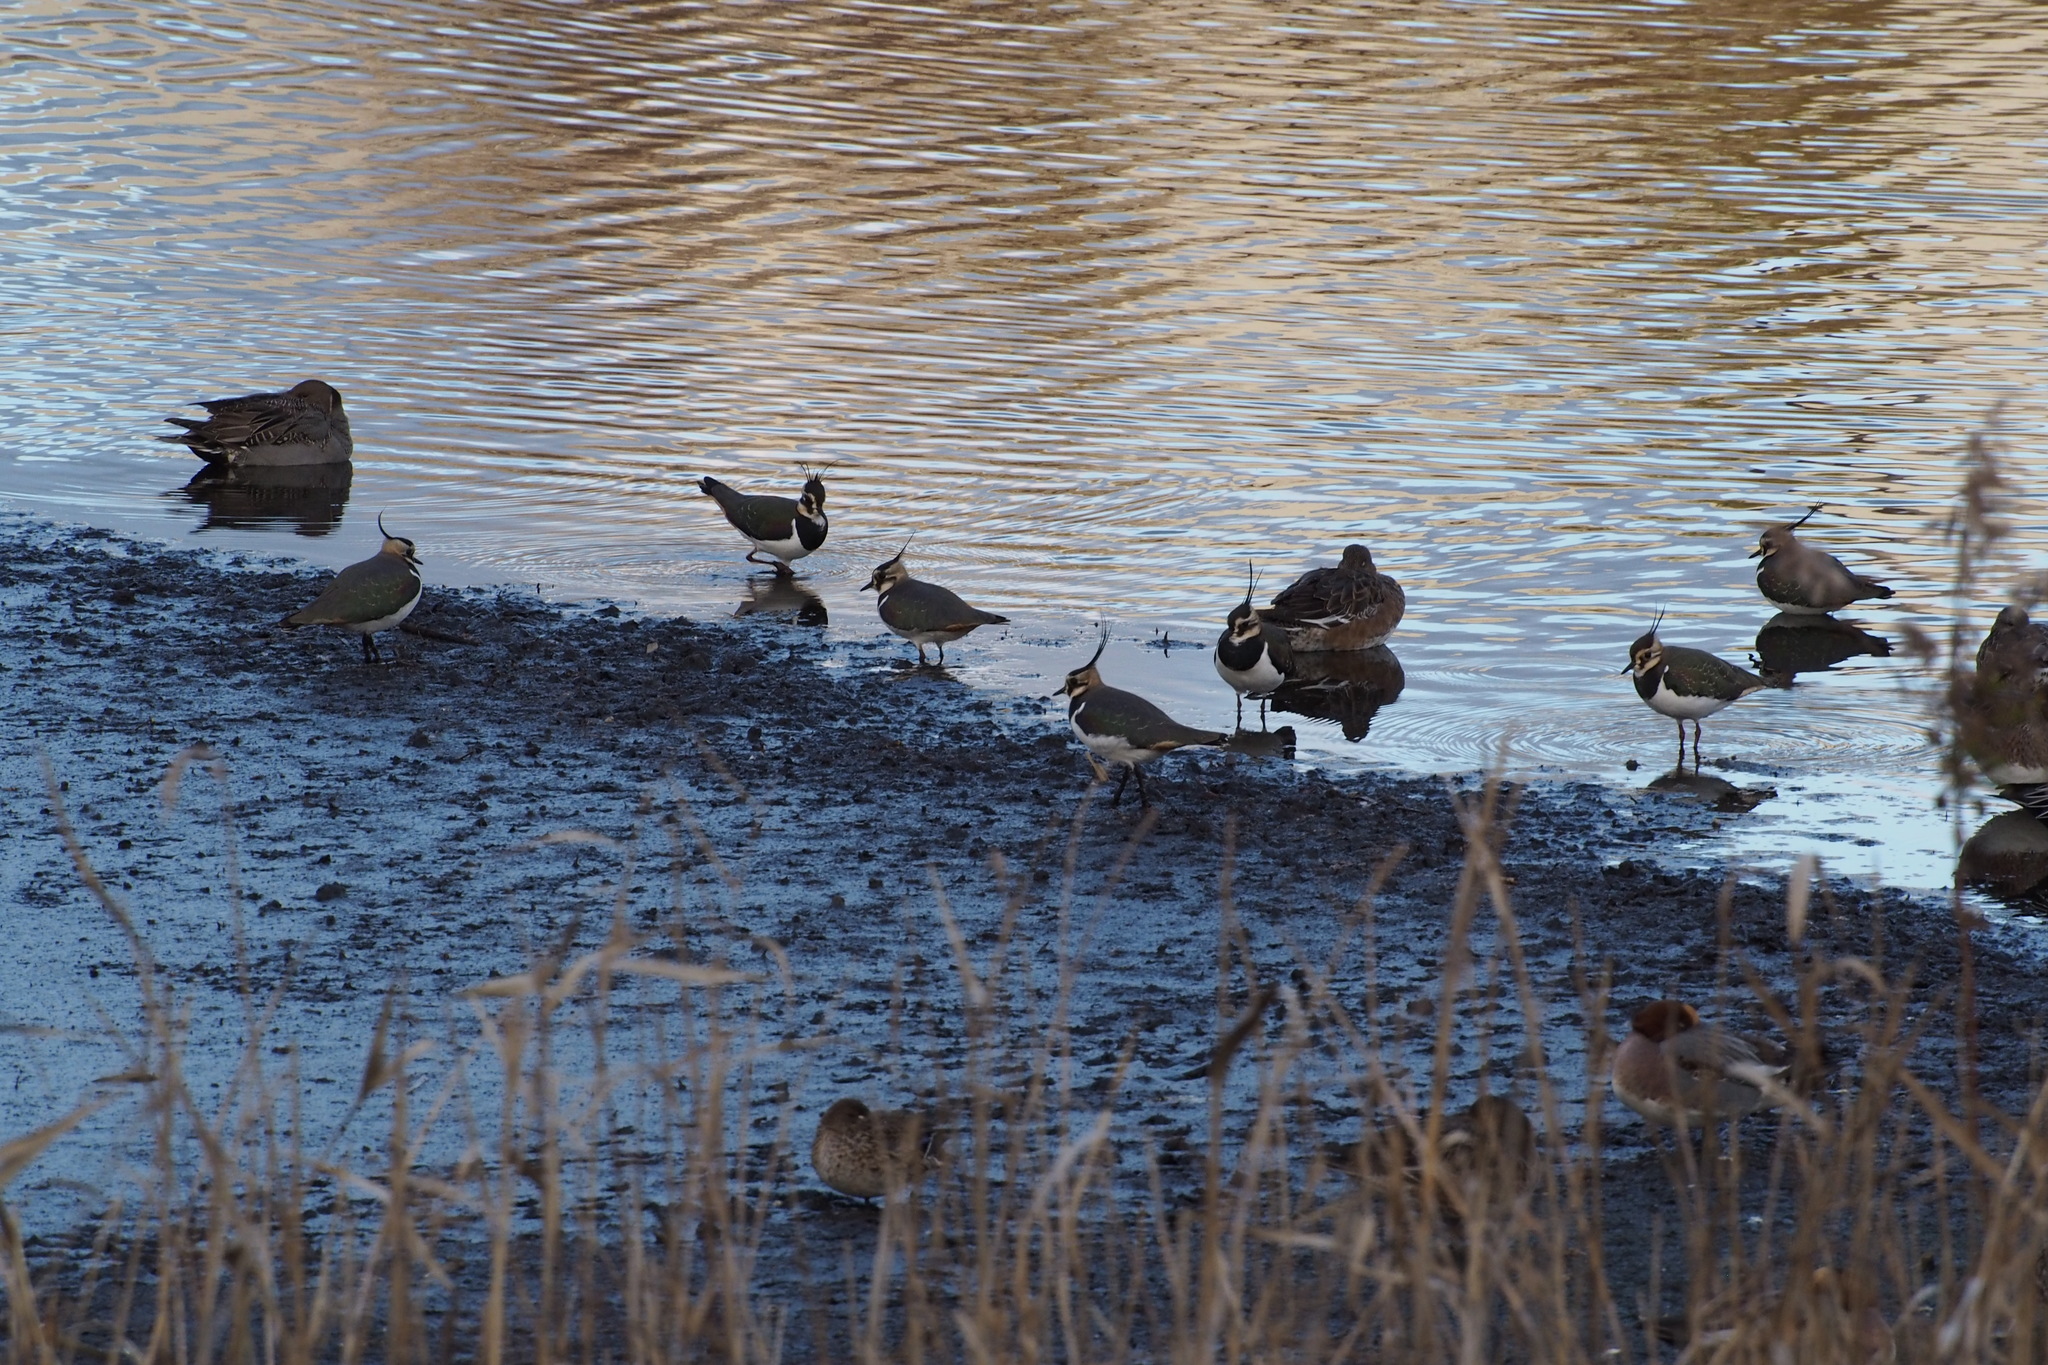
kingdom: Animalia
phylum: Chordata
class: Aves
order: Charadriiformes
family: Charadriidae
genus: Vanellus
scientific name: Vanellus vanellus
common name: Northern lapwing
